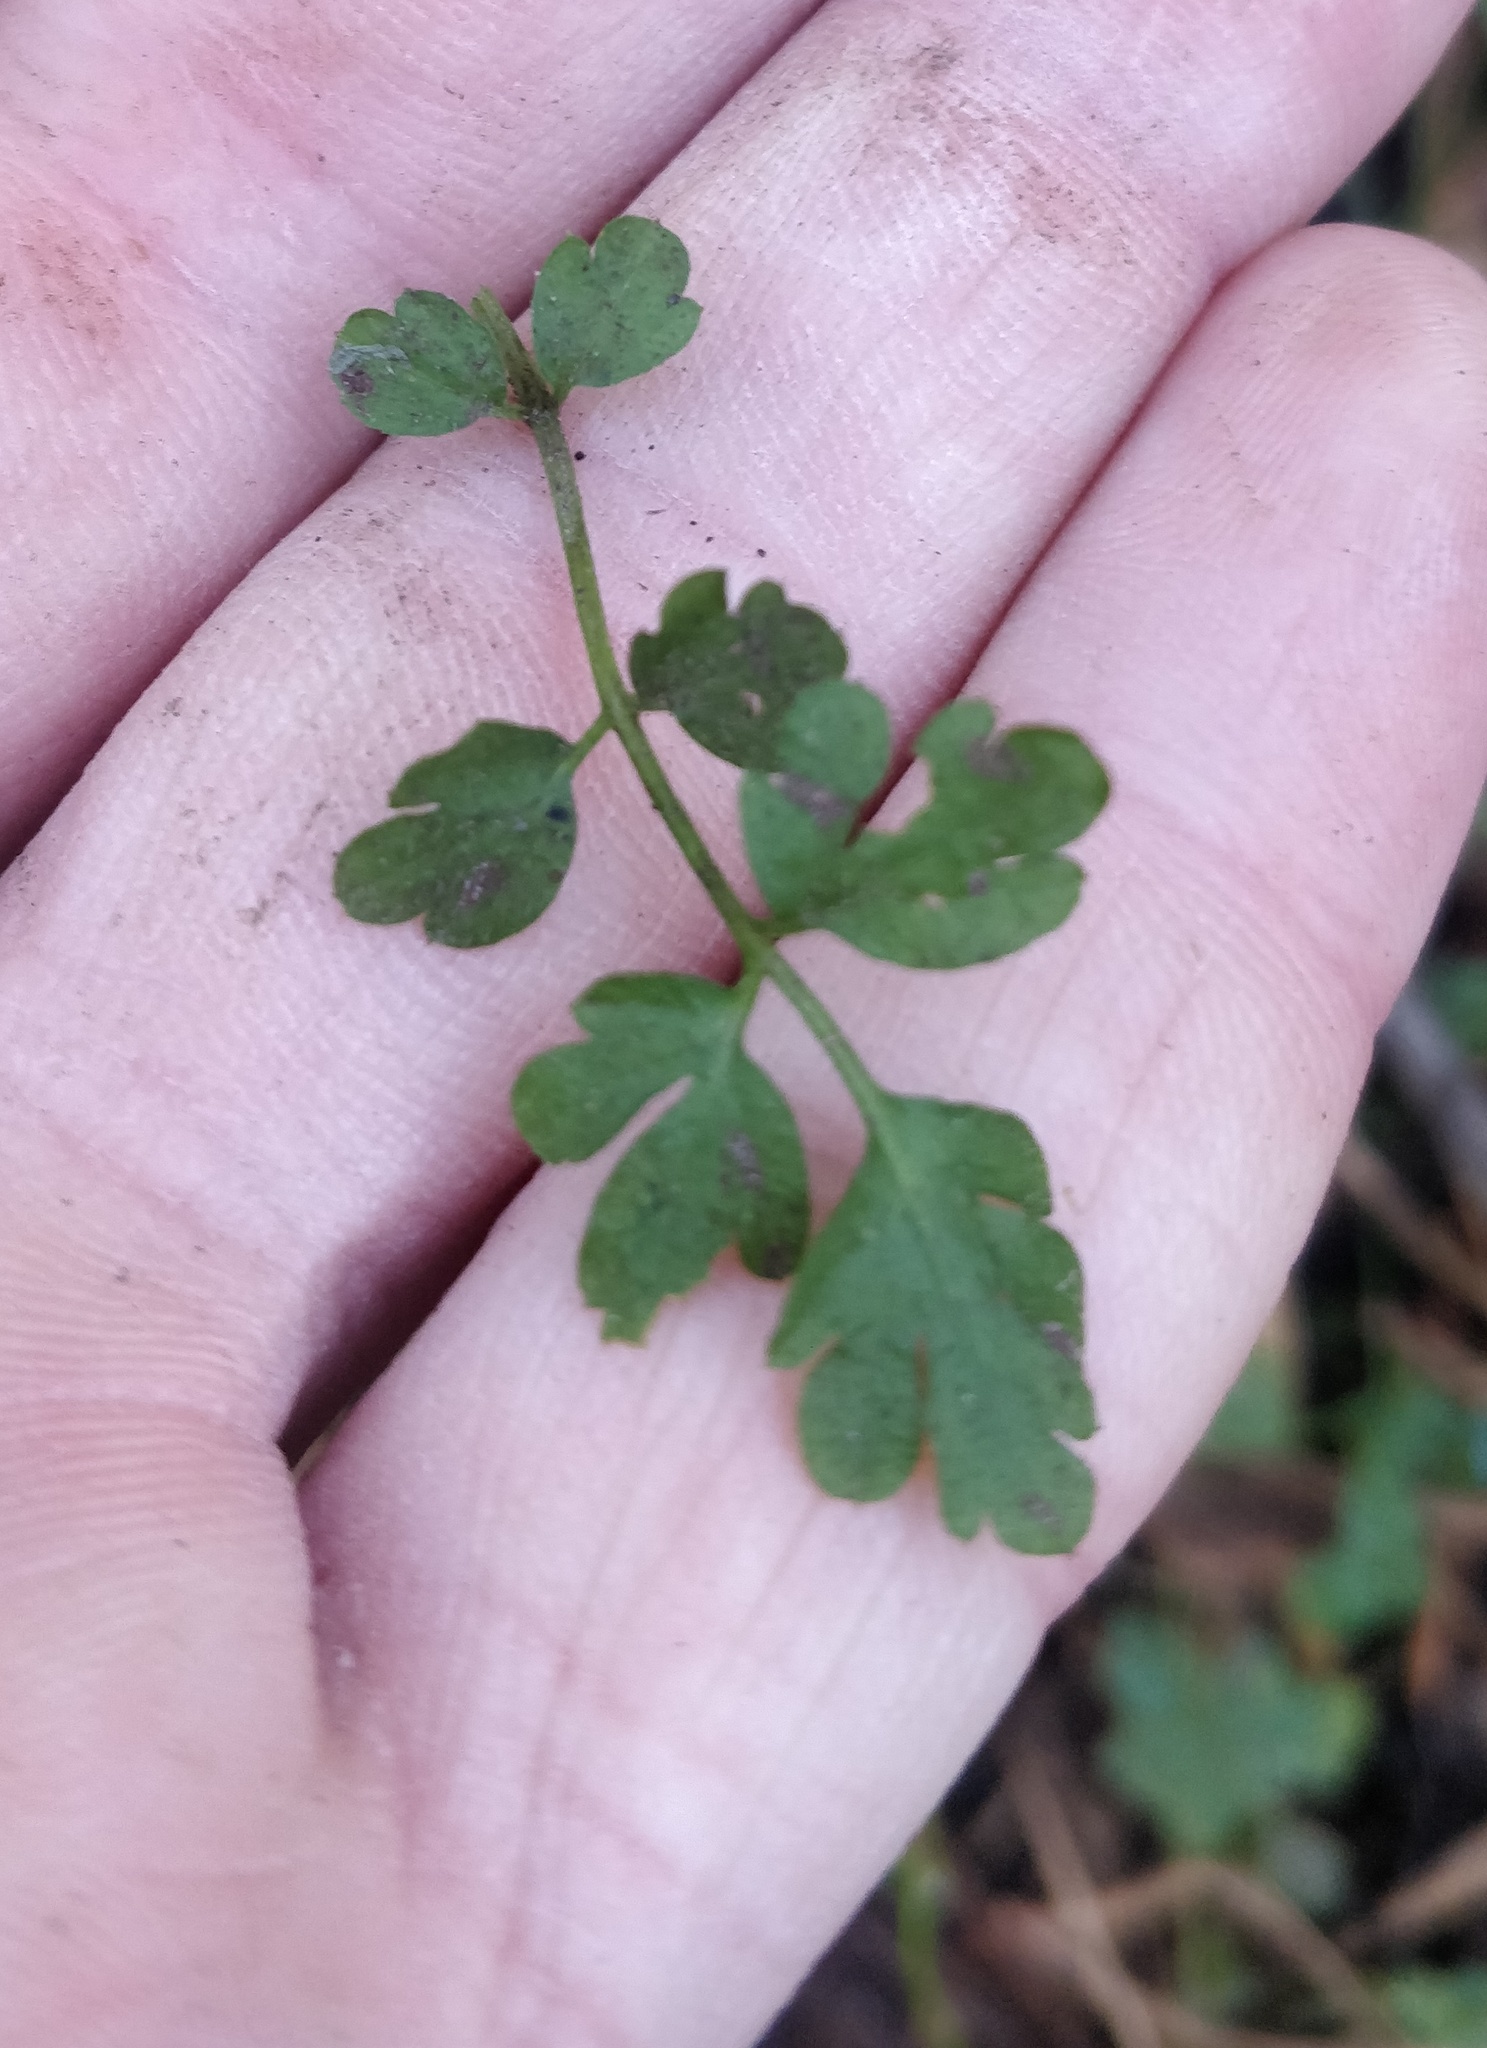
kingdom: Plantae
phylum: Tracheophyta
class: Magnoliopsida
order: Brassicales
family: Brassicaceae
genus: Cardamine
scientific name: Cardamine impatiens
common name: Narrow-leaved bitter-cress
